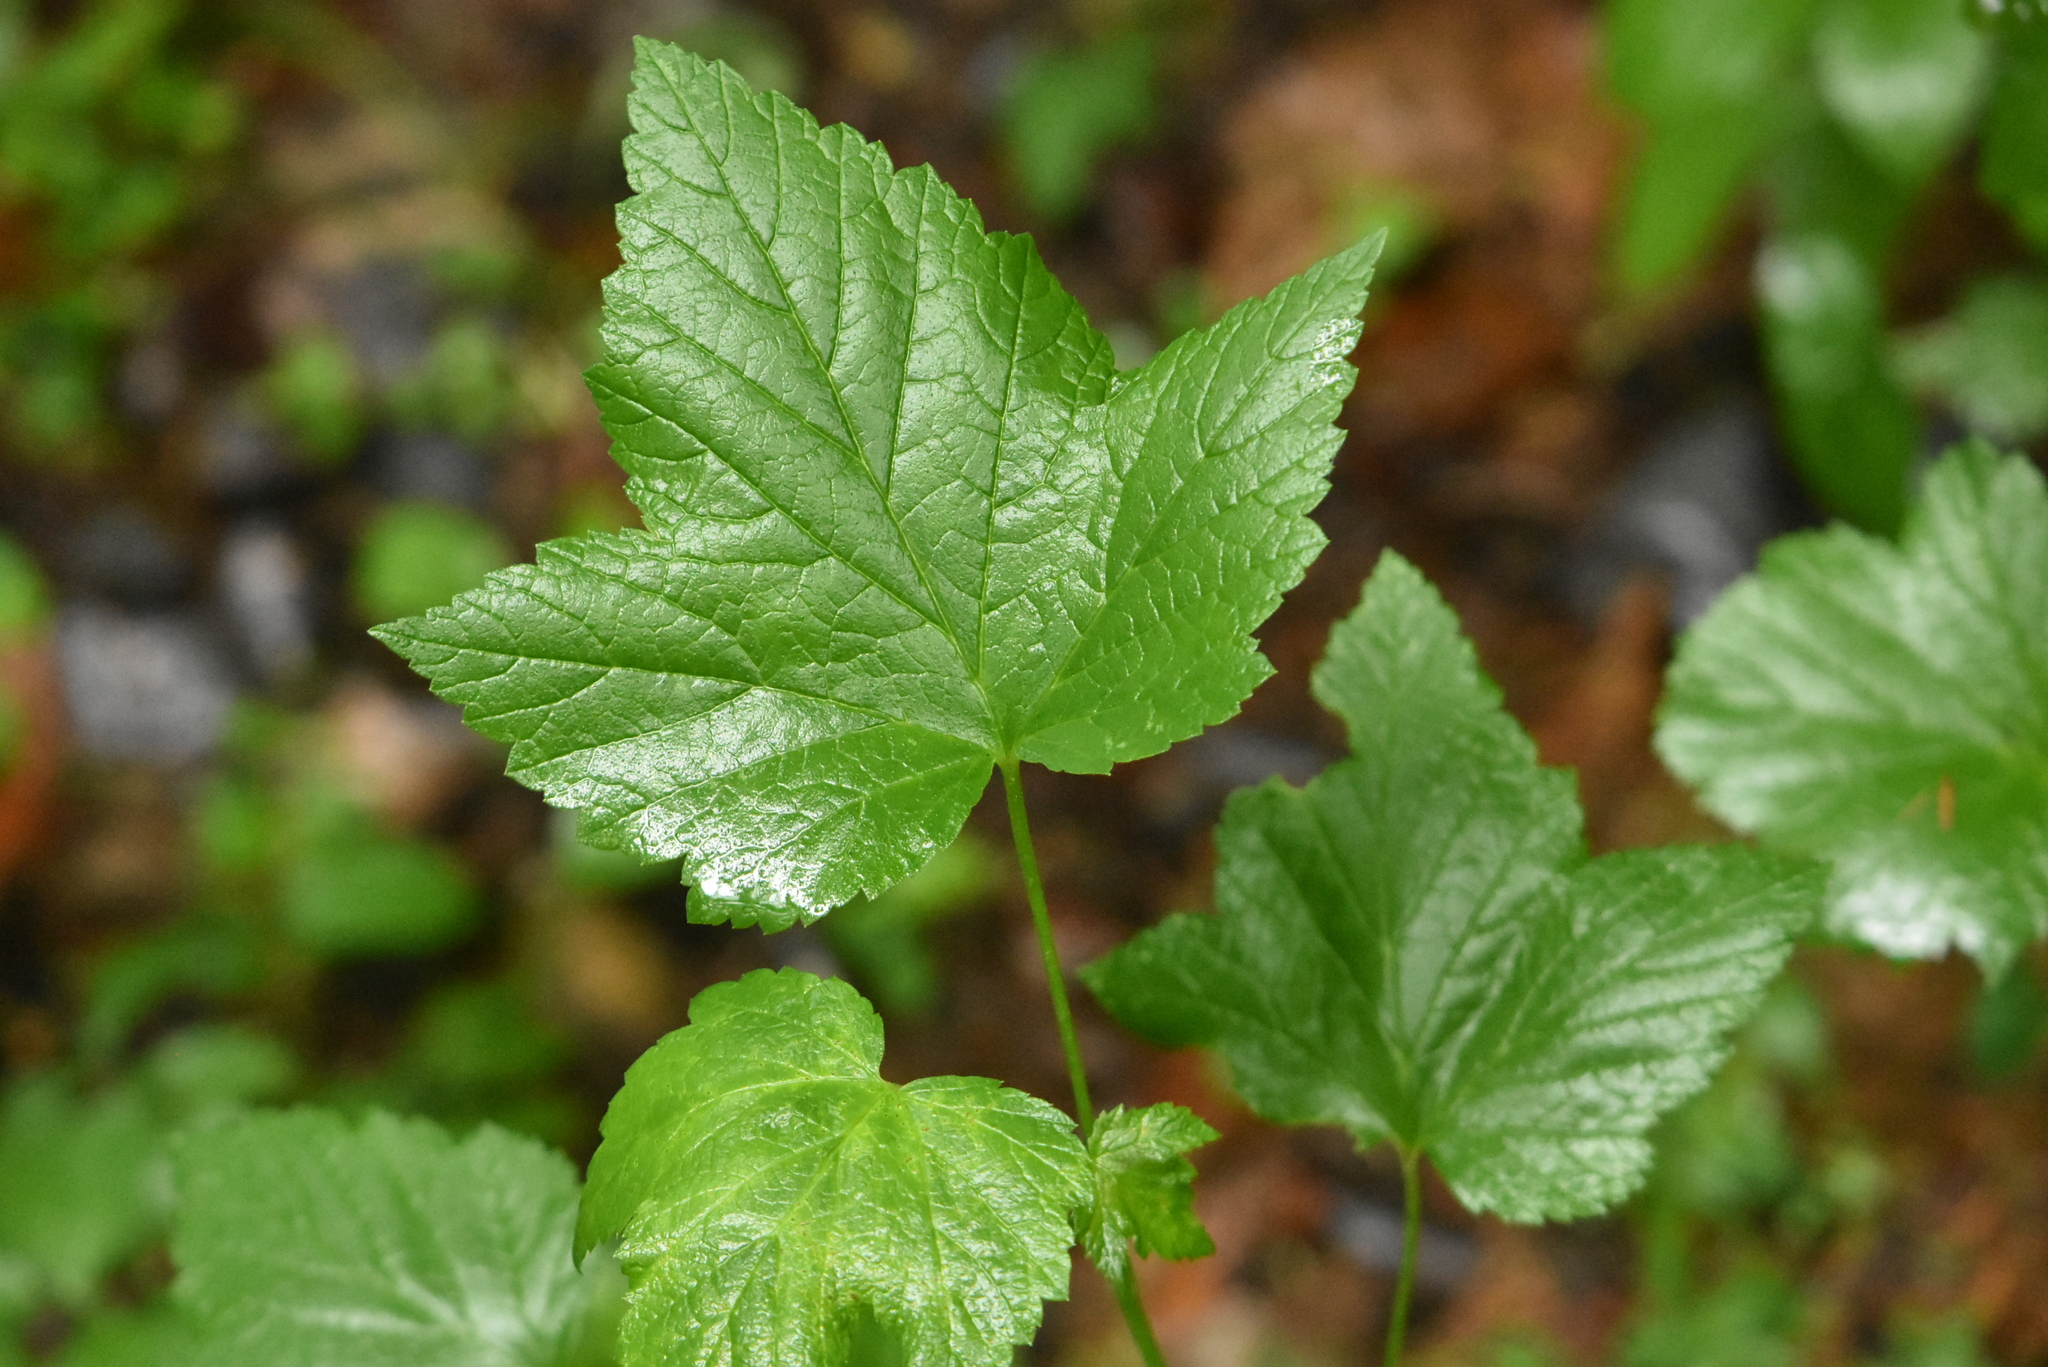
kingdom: Plantae
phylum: Tracheophyta
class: Magnoliopsida
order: Saxifragales
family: Grossulariaceae
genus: Ribes
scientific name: Ribes nigrum
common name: Black currant
